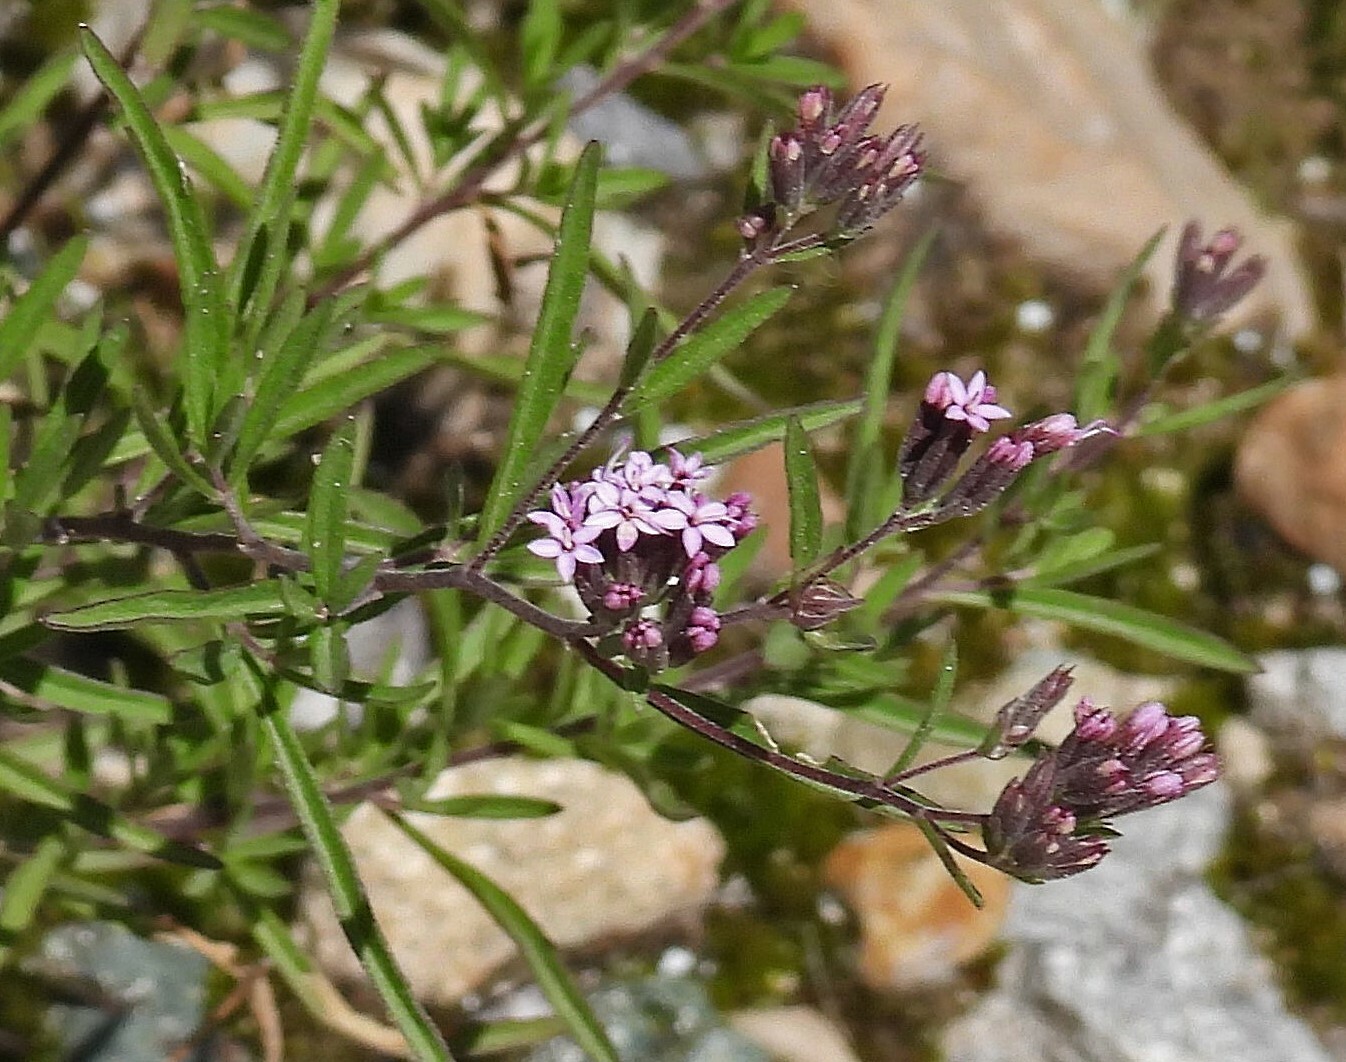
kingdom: Plantae
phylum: Tracheophyta
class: Magnoliopsida
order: Asterales
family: Asteraceae
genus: Stevia
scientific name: Stevia breviaristata
